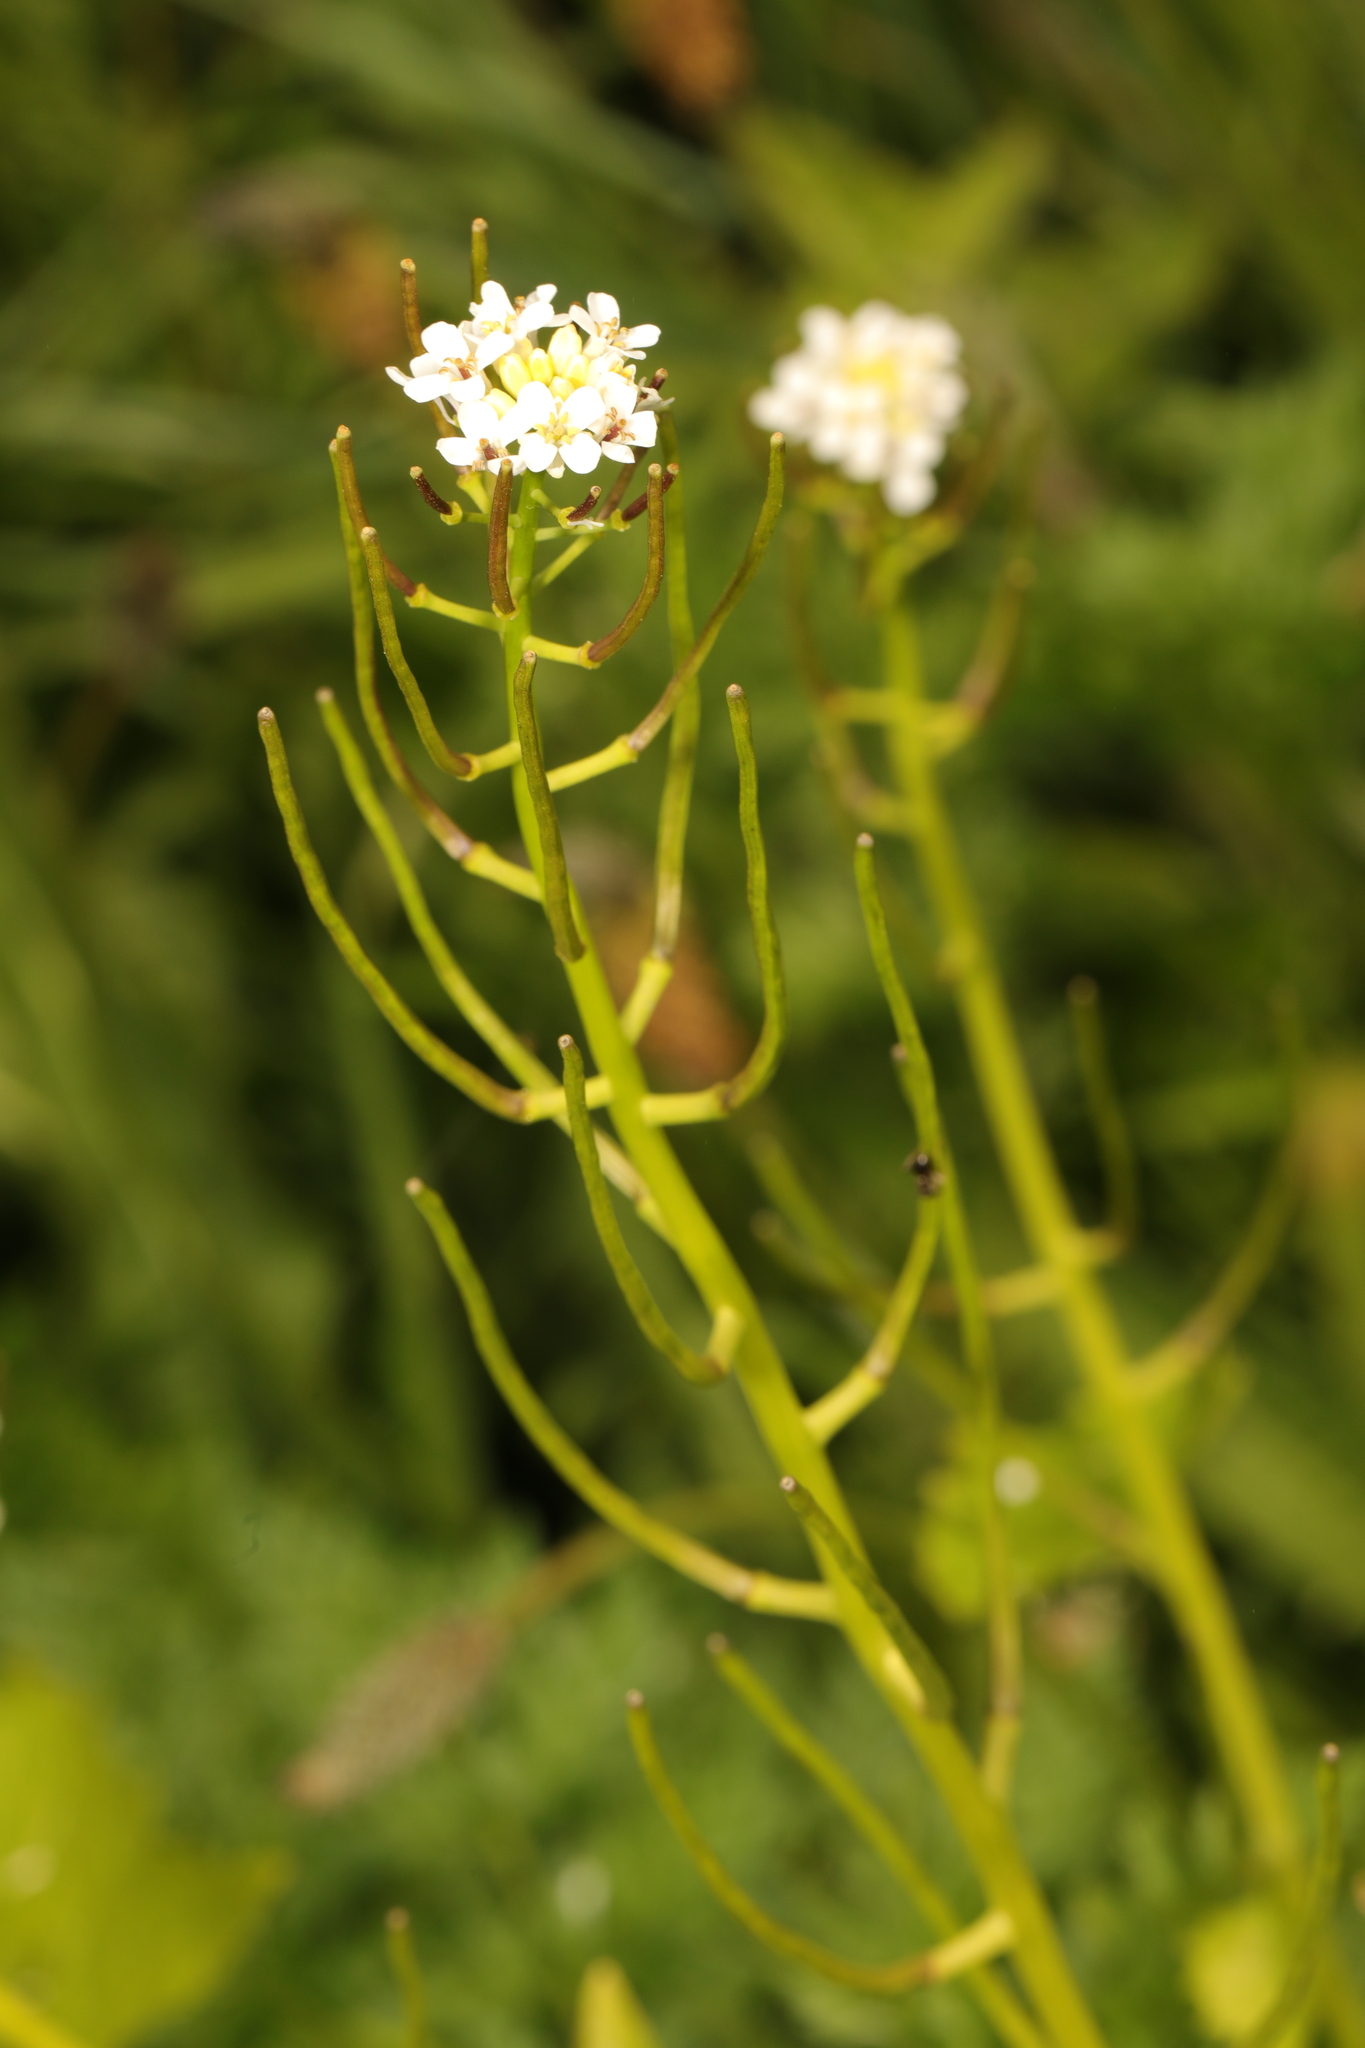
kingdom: Plantae
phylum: Tracheophyta
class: Magnoliopsida
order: Brassicales
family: Brassicaceae
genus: Alliaria
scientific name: Alliaria petiolata
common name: Garlic mustard
